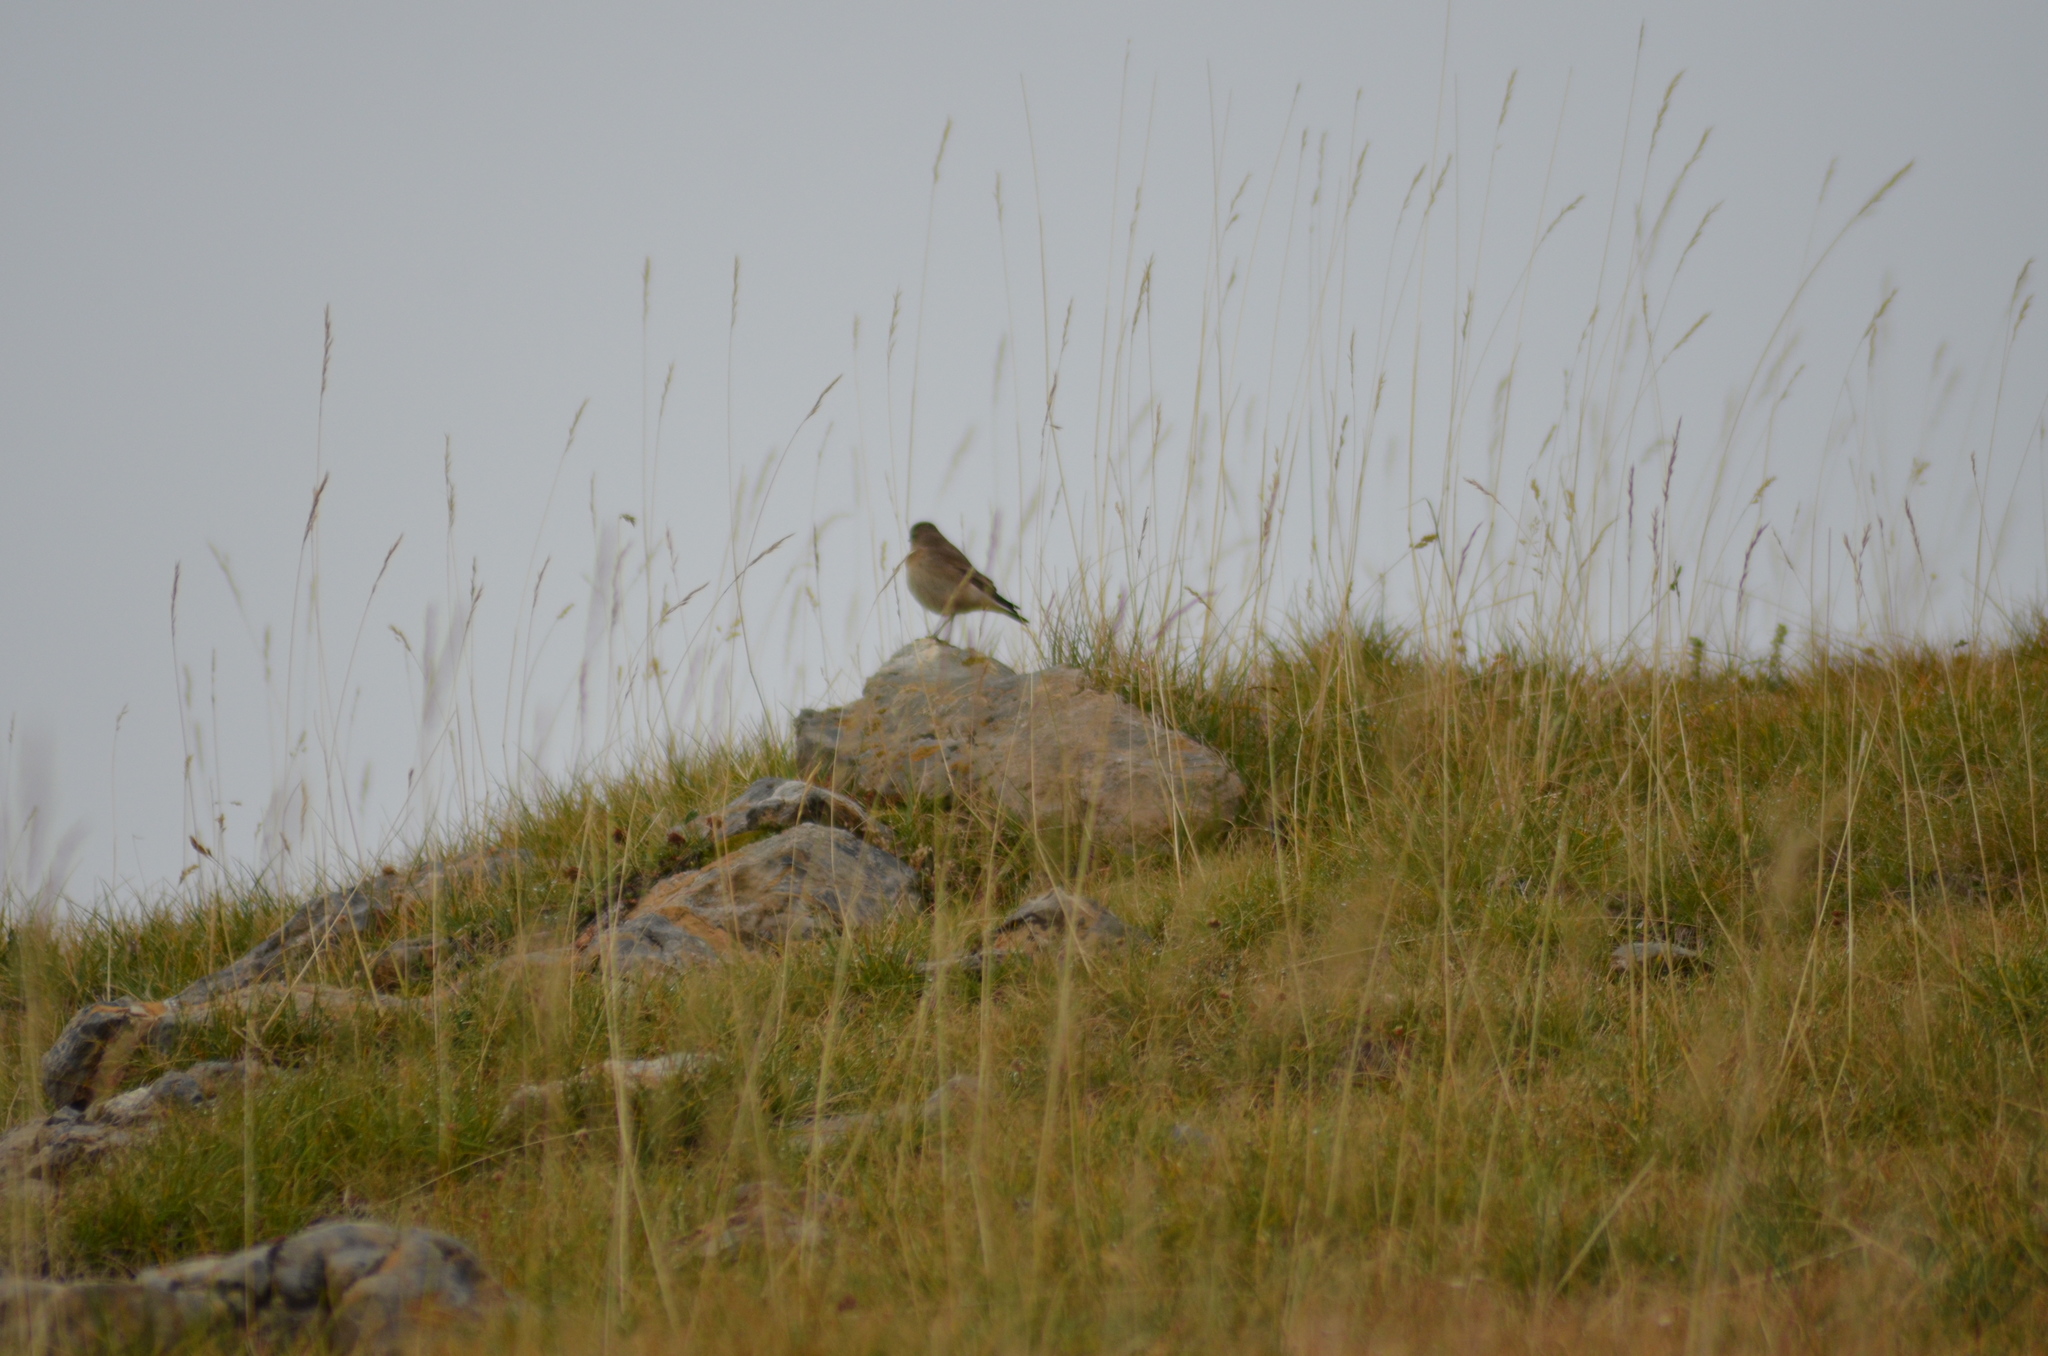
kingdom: Animalia
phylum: Chordata
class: Aves
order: Passeriformes
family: Muscicapidae
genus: Oenanthe
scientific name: Oenanthe oenanthe
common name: Northern wheatear
